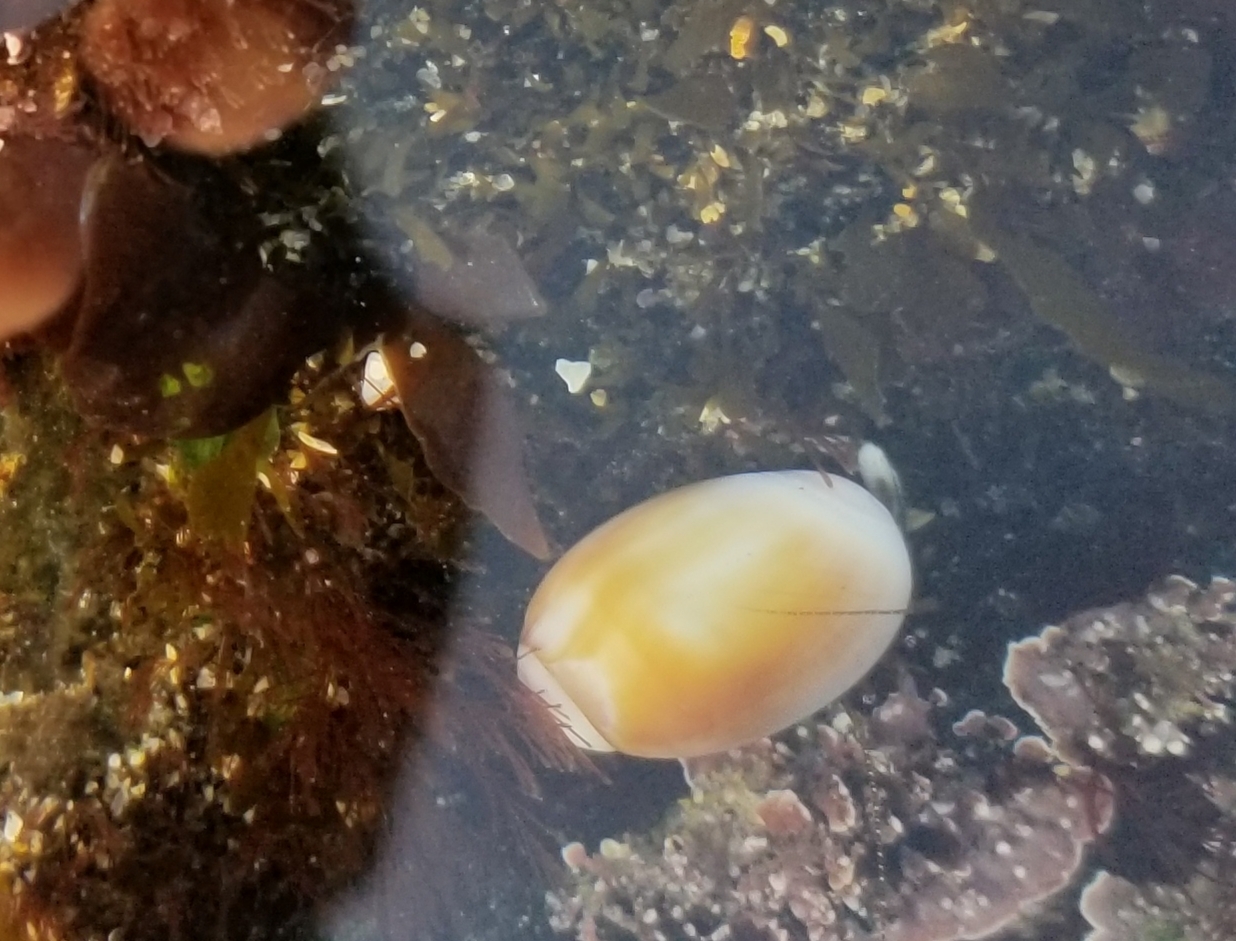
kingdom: Animalia
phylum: Mollusca
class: Gastropoda
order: Neogastropoda
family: Olividae
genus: Callianax
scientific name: Callianax biplicata
